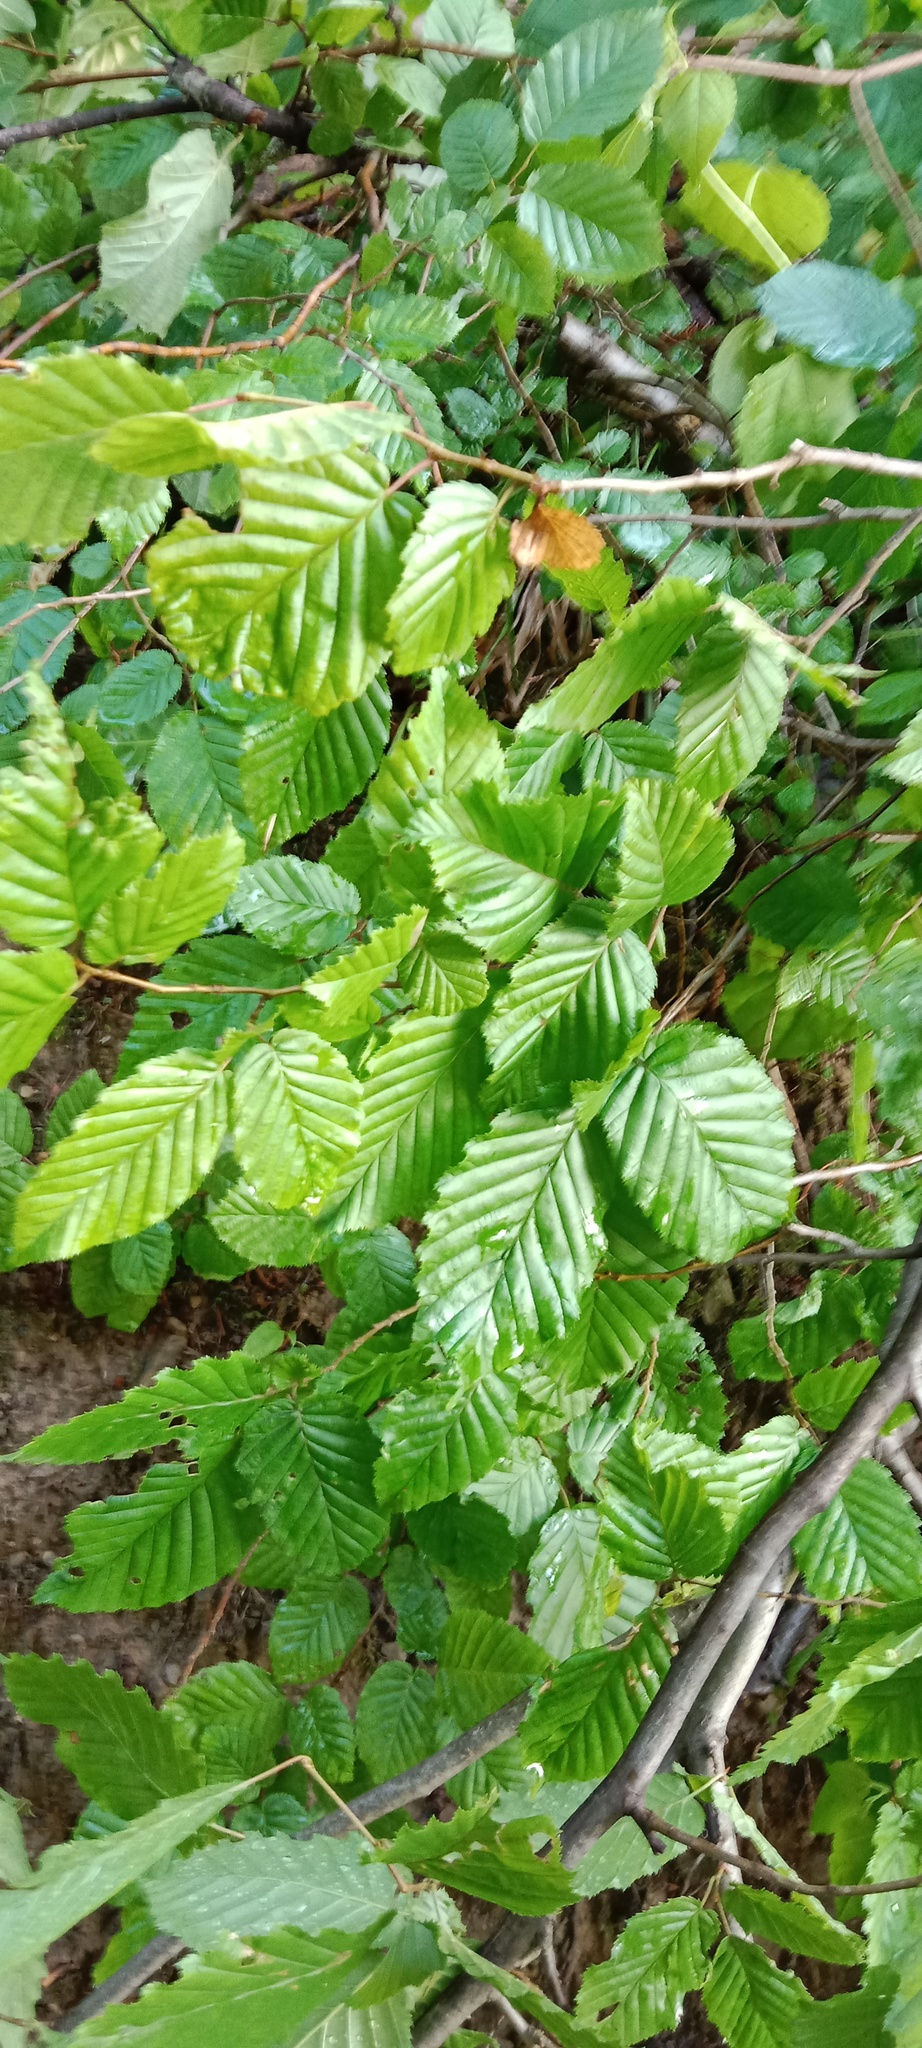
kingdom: Plantae
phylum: Tracheophyta
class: Magnoliopsida
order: Fagales
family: Betulaceae
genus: Carpinus
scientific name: Carpinus betulus
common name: Hornbeam
